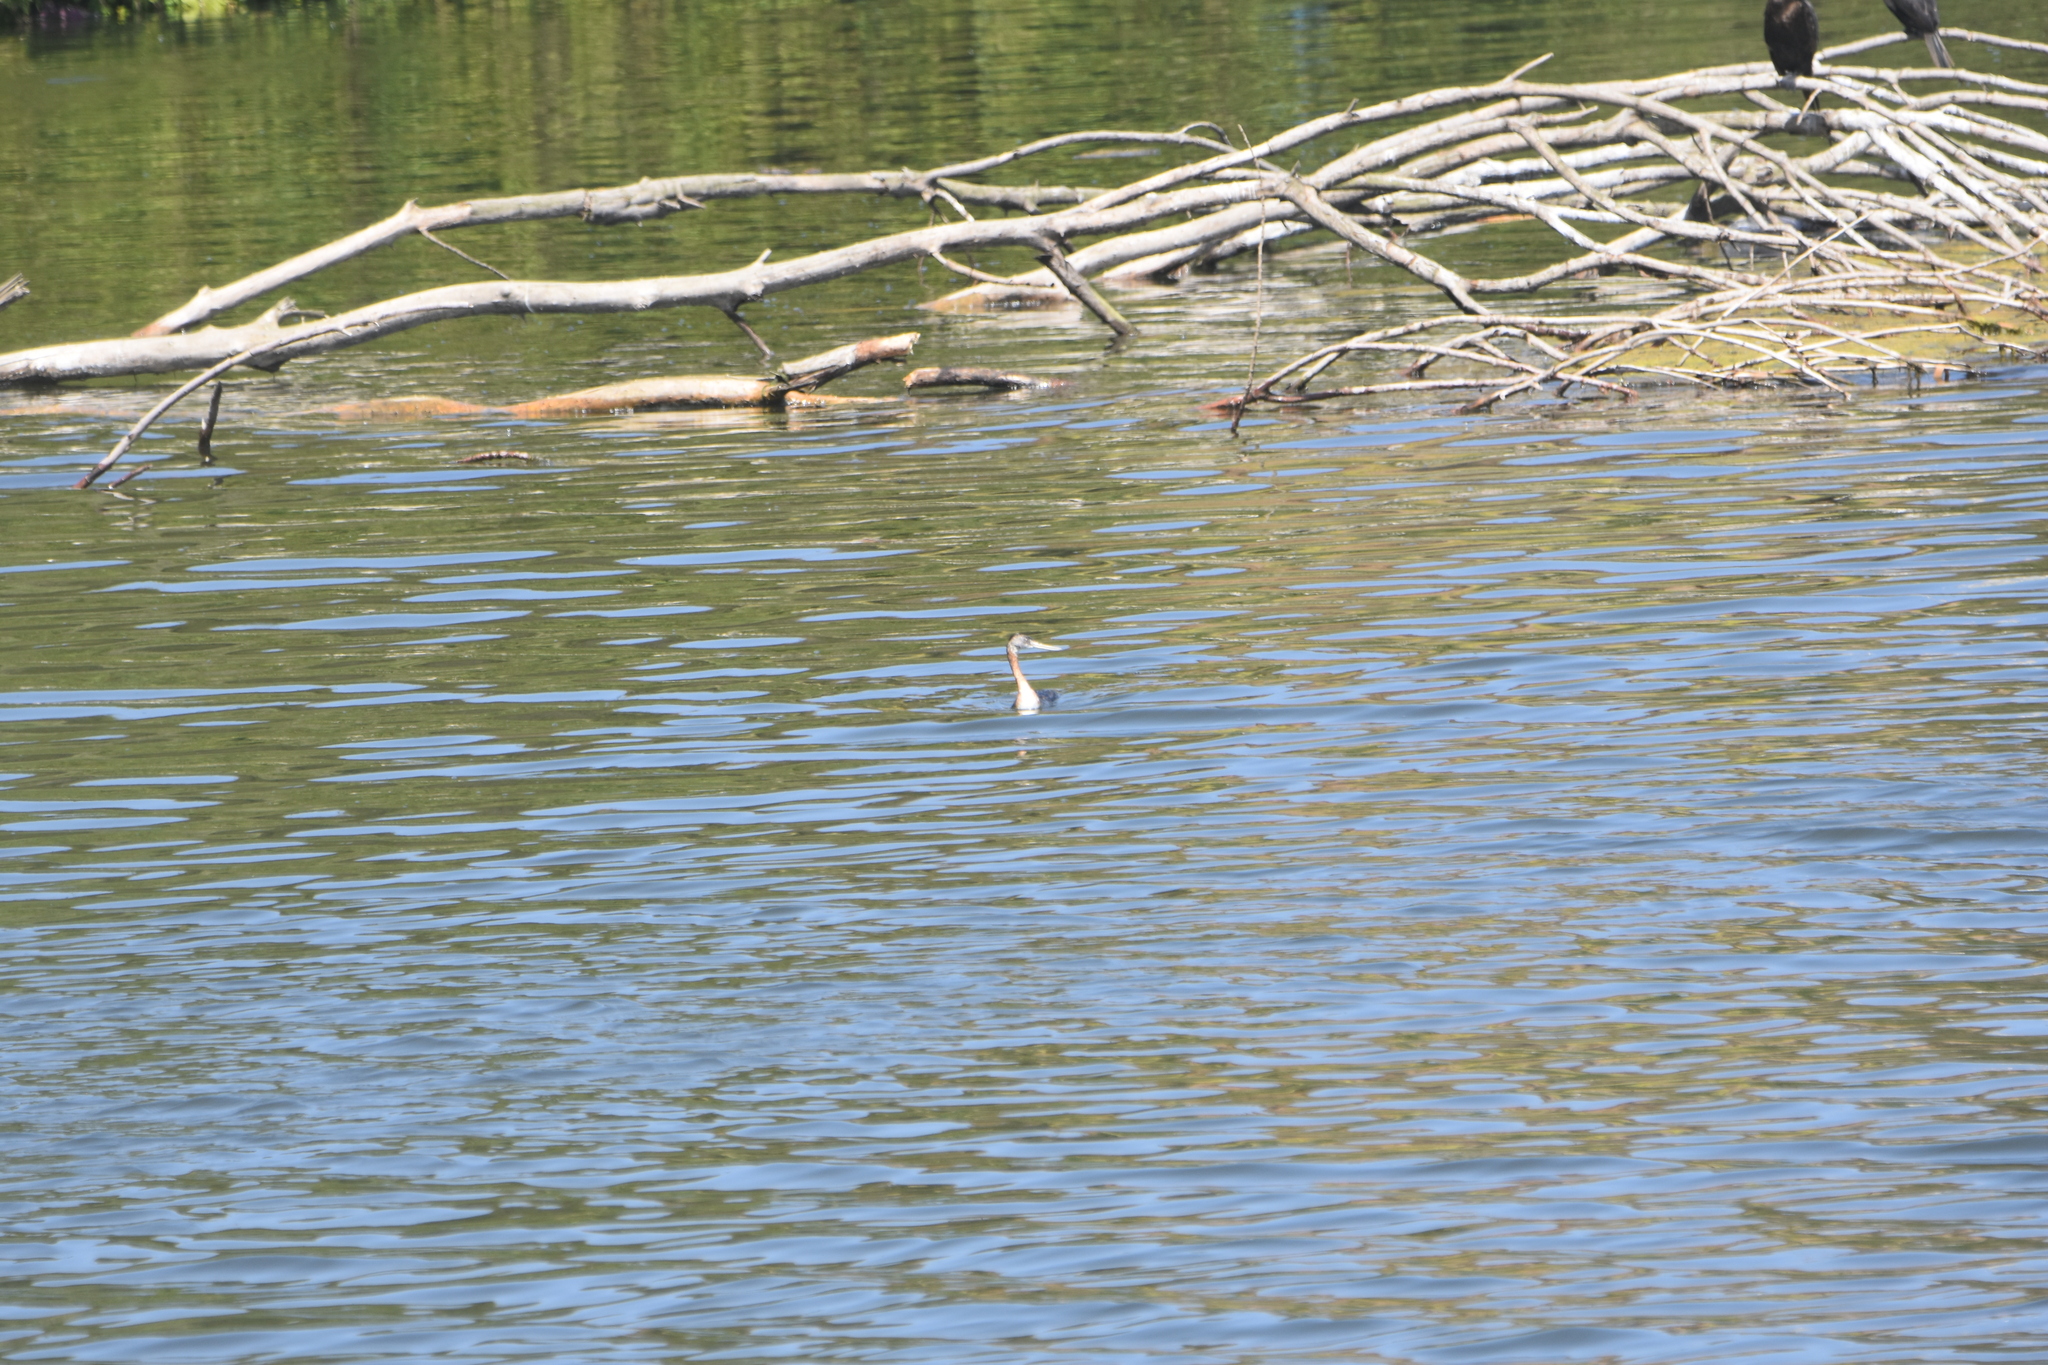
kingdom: Animalia
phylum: Chordata
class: Aves
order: Podicipediformes
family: Podicipedidae
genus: Podiceps
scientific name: Podiceps major
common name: Great grebe
